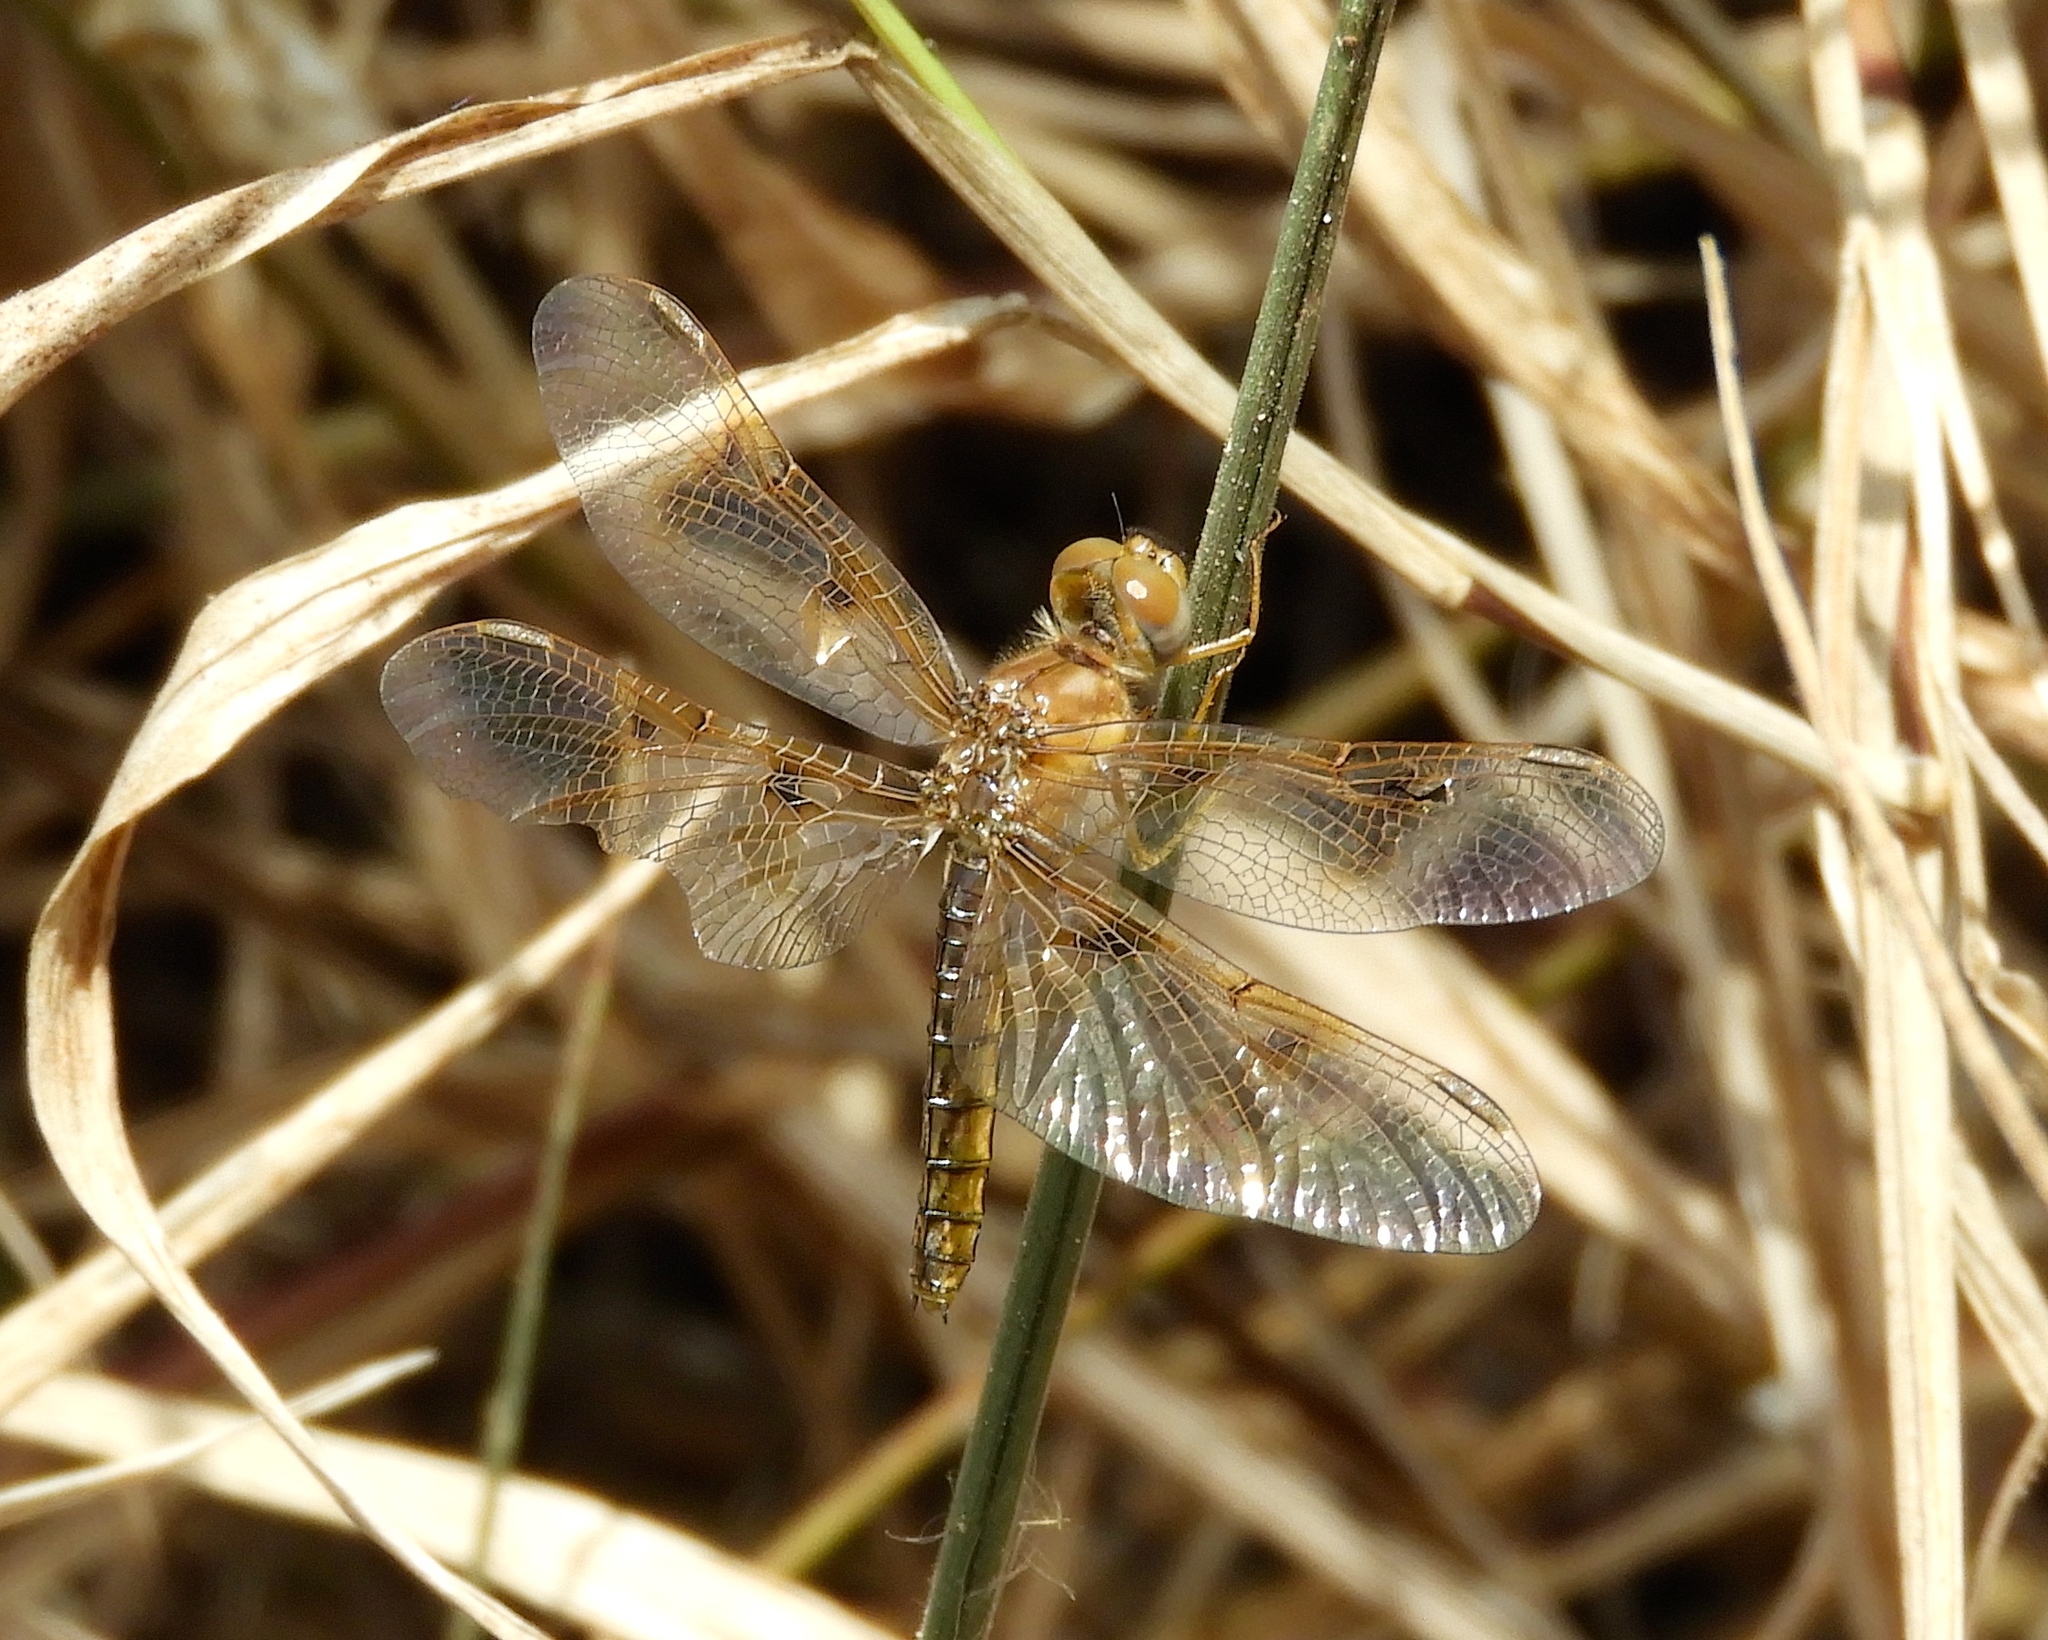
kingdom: Animalia
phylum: Arthropoda
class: Insecta
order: Odonata
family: Libellulidae
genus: Perithemis
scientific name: Perithemis
